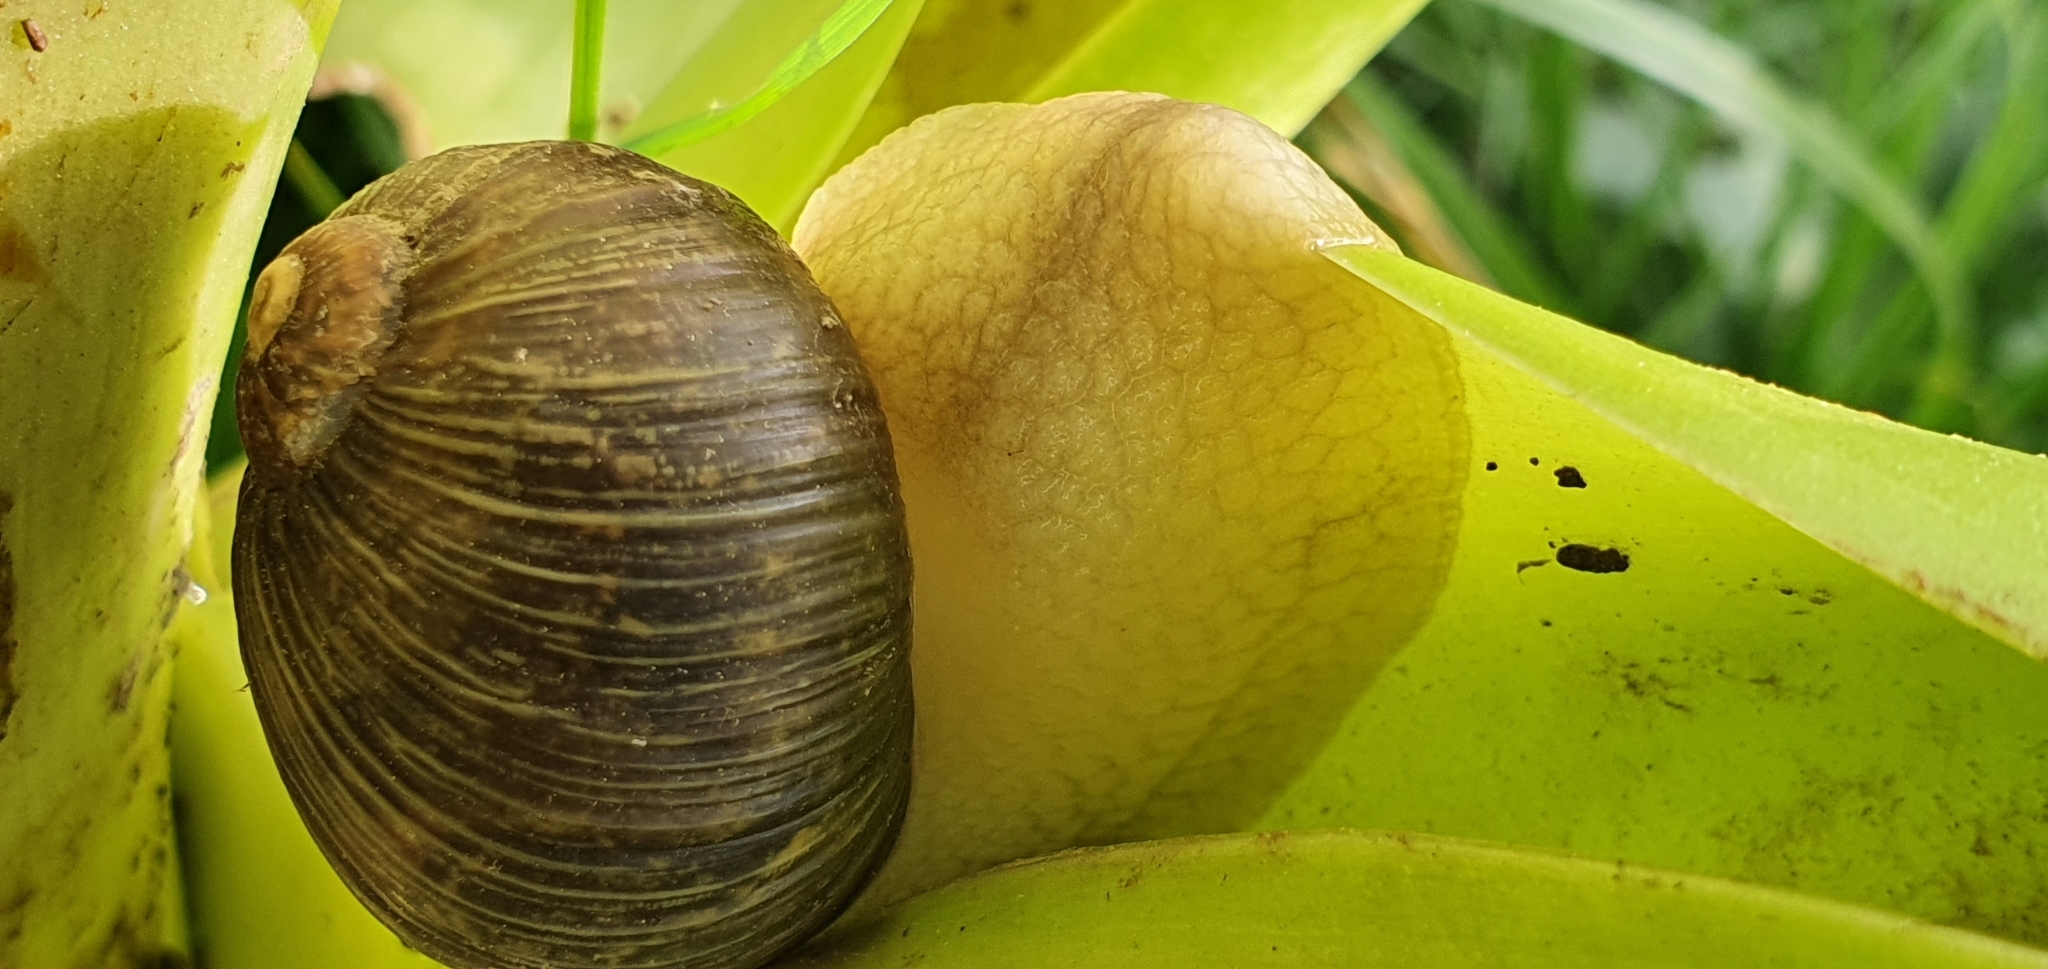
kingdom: Animalia
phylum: Mollusca
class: Gastropoda
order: Stylommatophora
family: Helicidae
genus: Cantareus
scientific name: Cantareus apertus
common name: Green gardensnail
